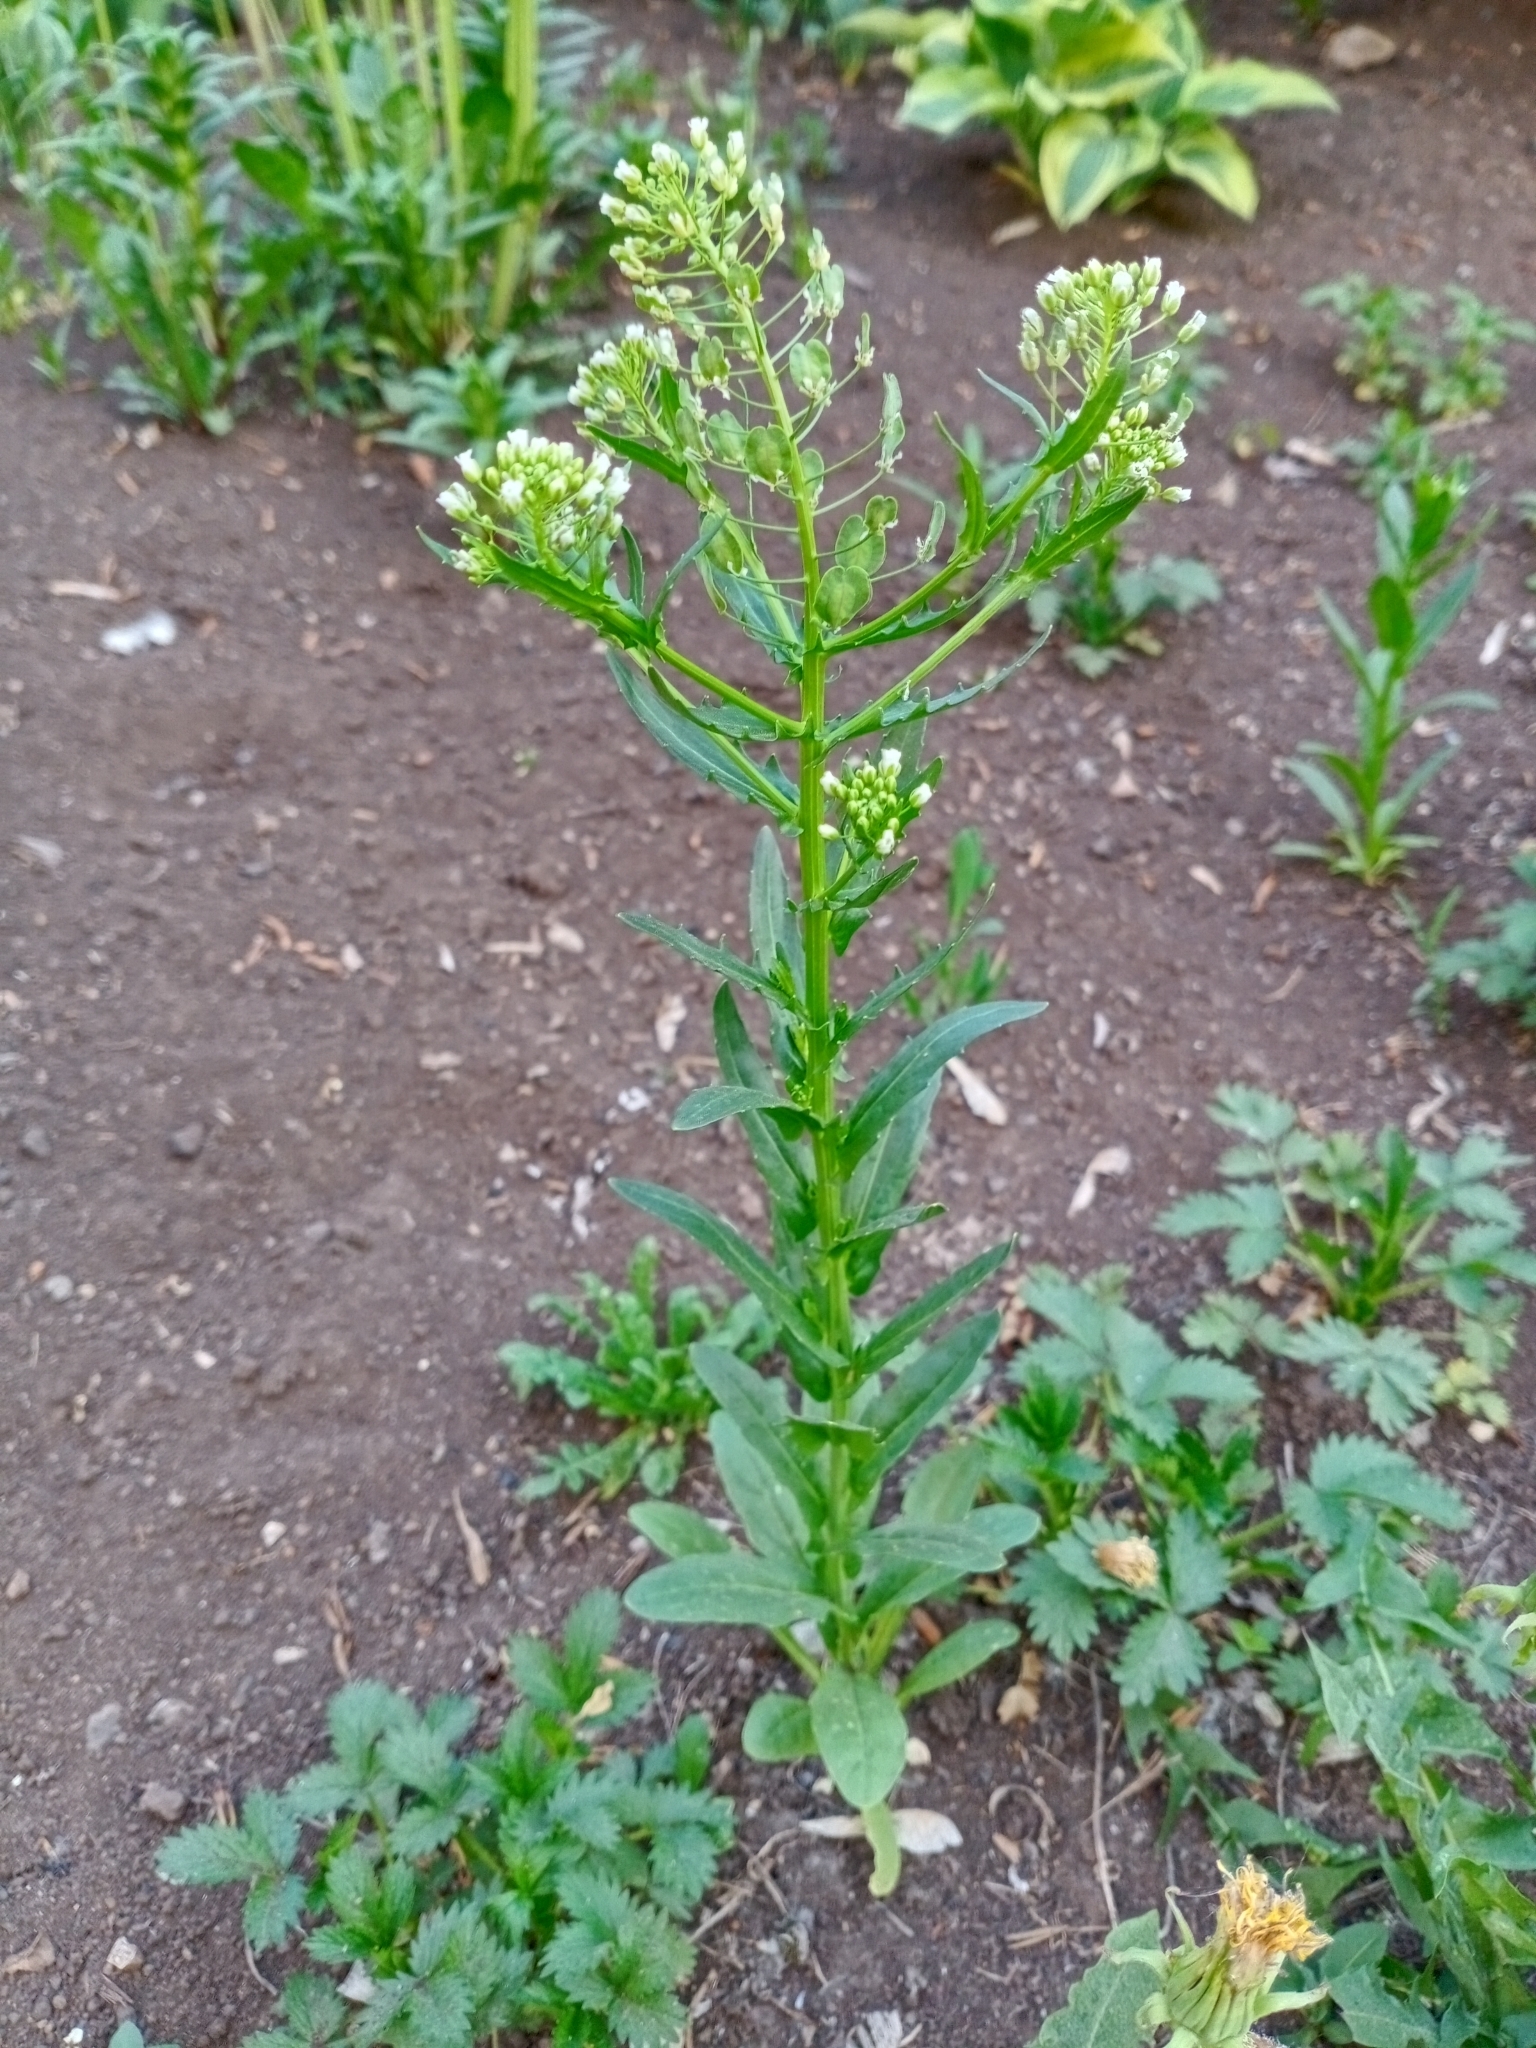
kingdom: Plantae
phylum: Tracheophyta
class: Magnoliopsida
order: Brassicales
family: Brassicaceae
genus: Thlaspi
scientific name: Thlaspi arvense
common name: Field pennycress
